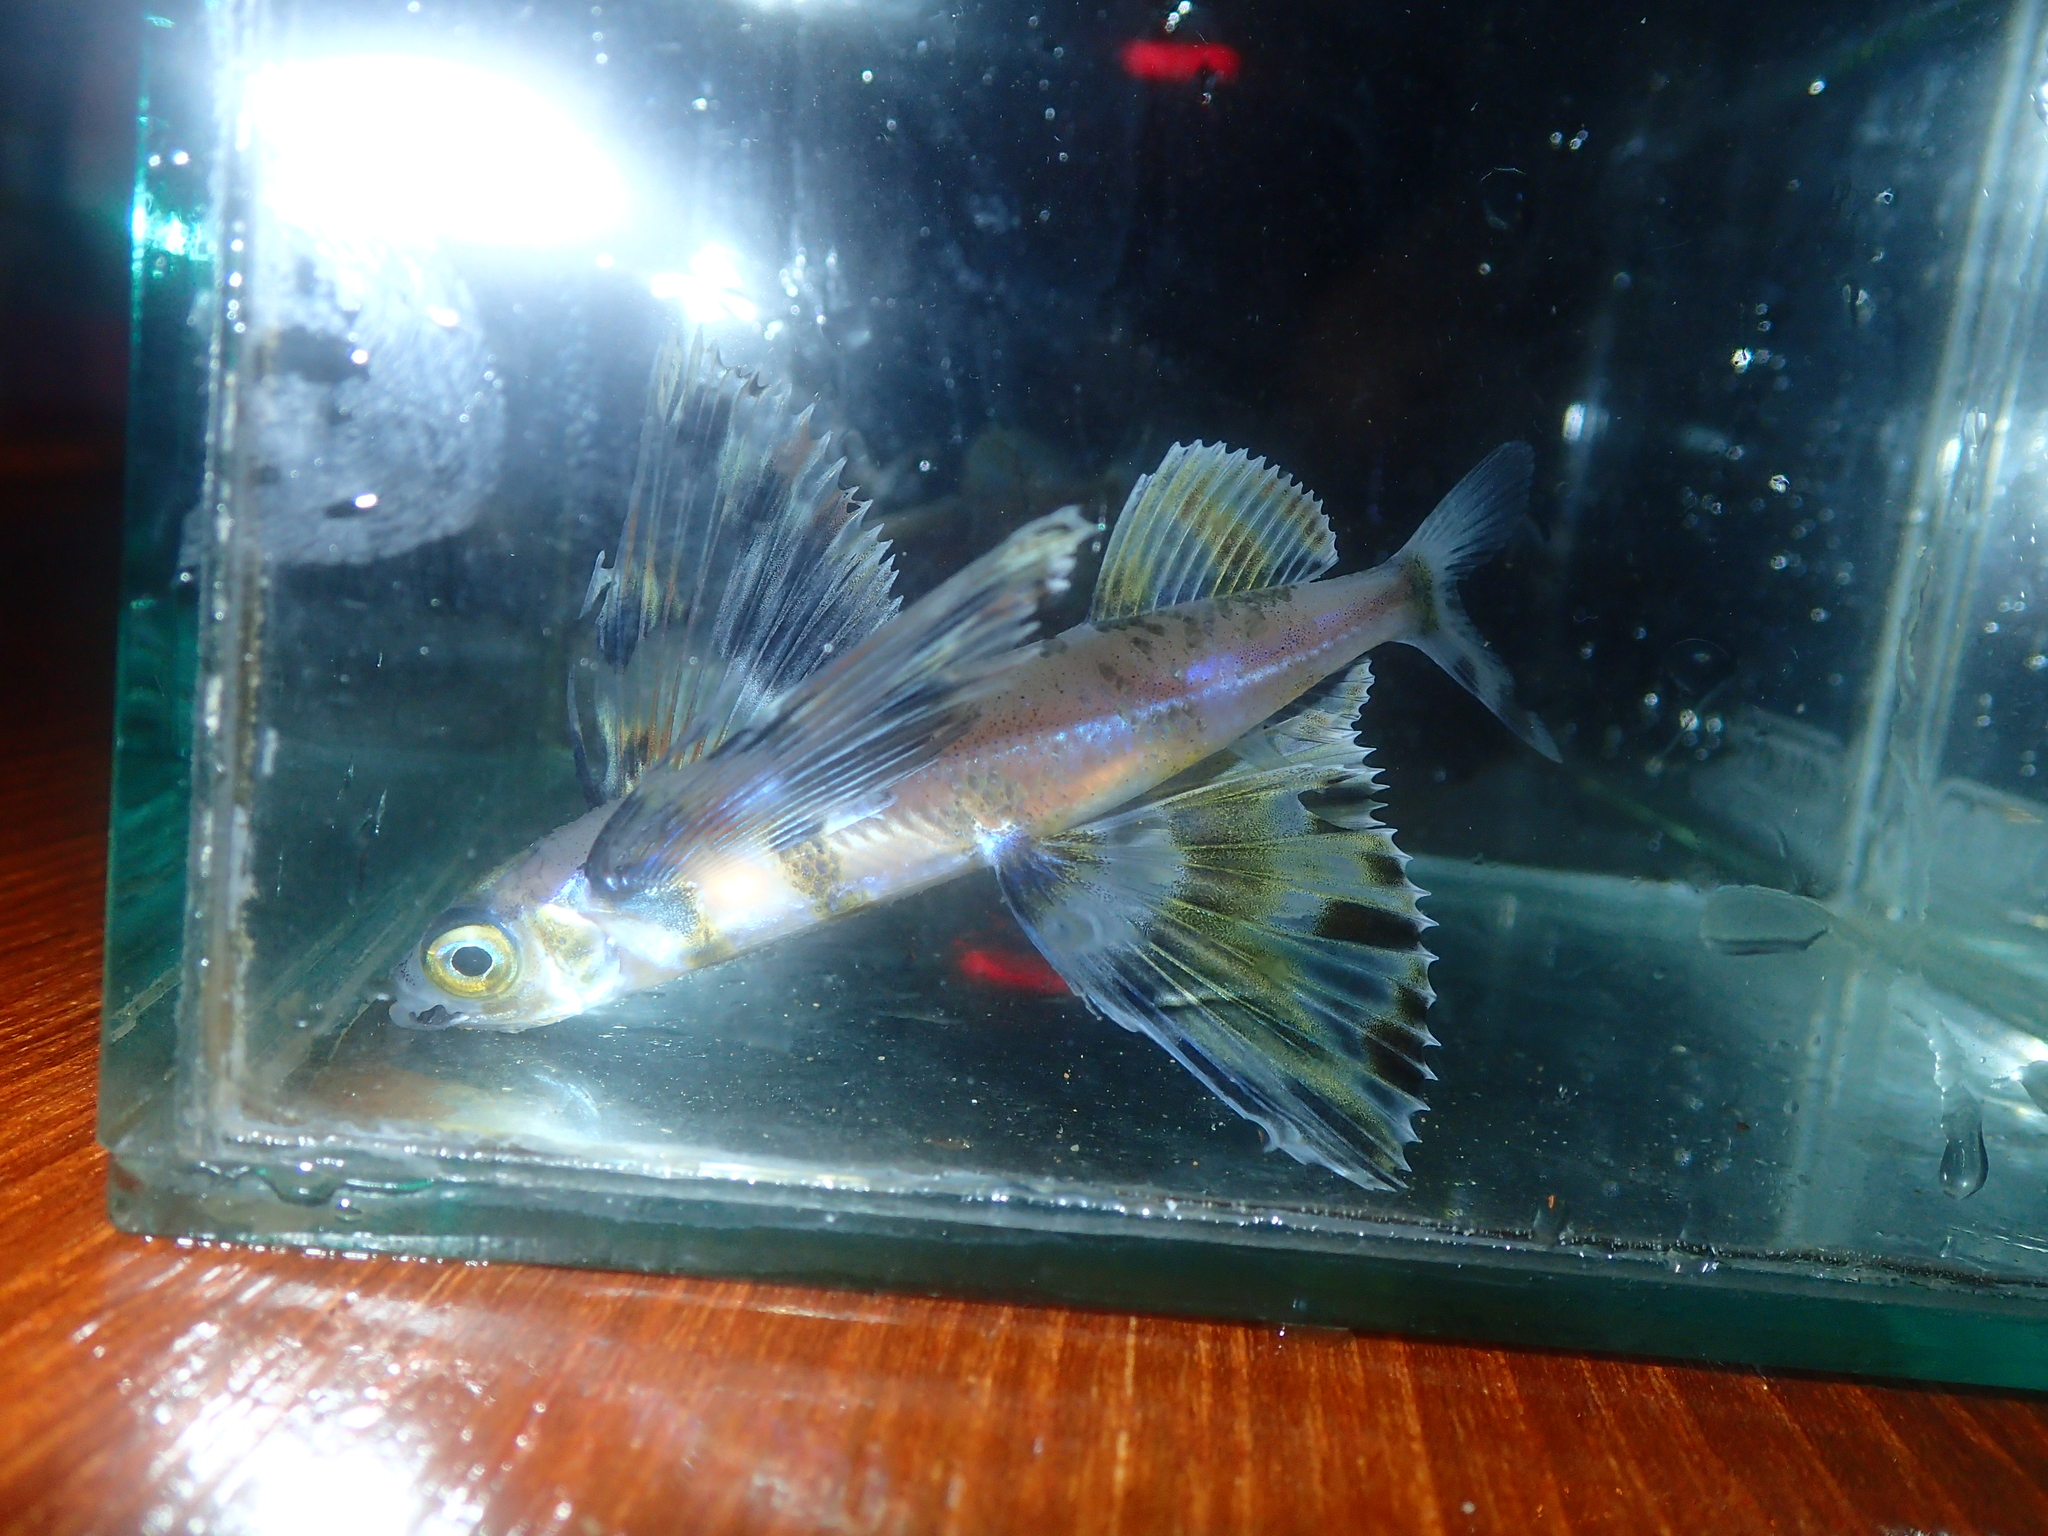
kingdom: Animalia
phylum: Chordata
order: Beloniformes
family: Exocoetidae
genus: Cheilopogon
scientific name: Cheilopogon heterurus
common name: Mediterranean flyingfish
